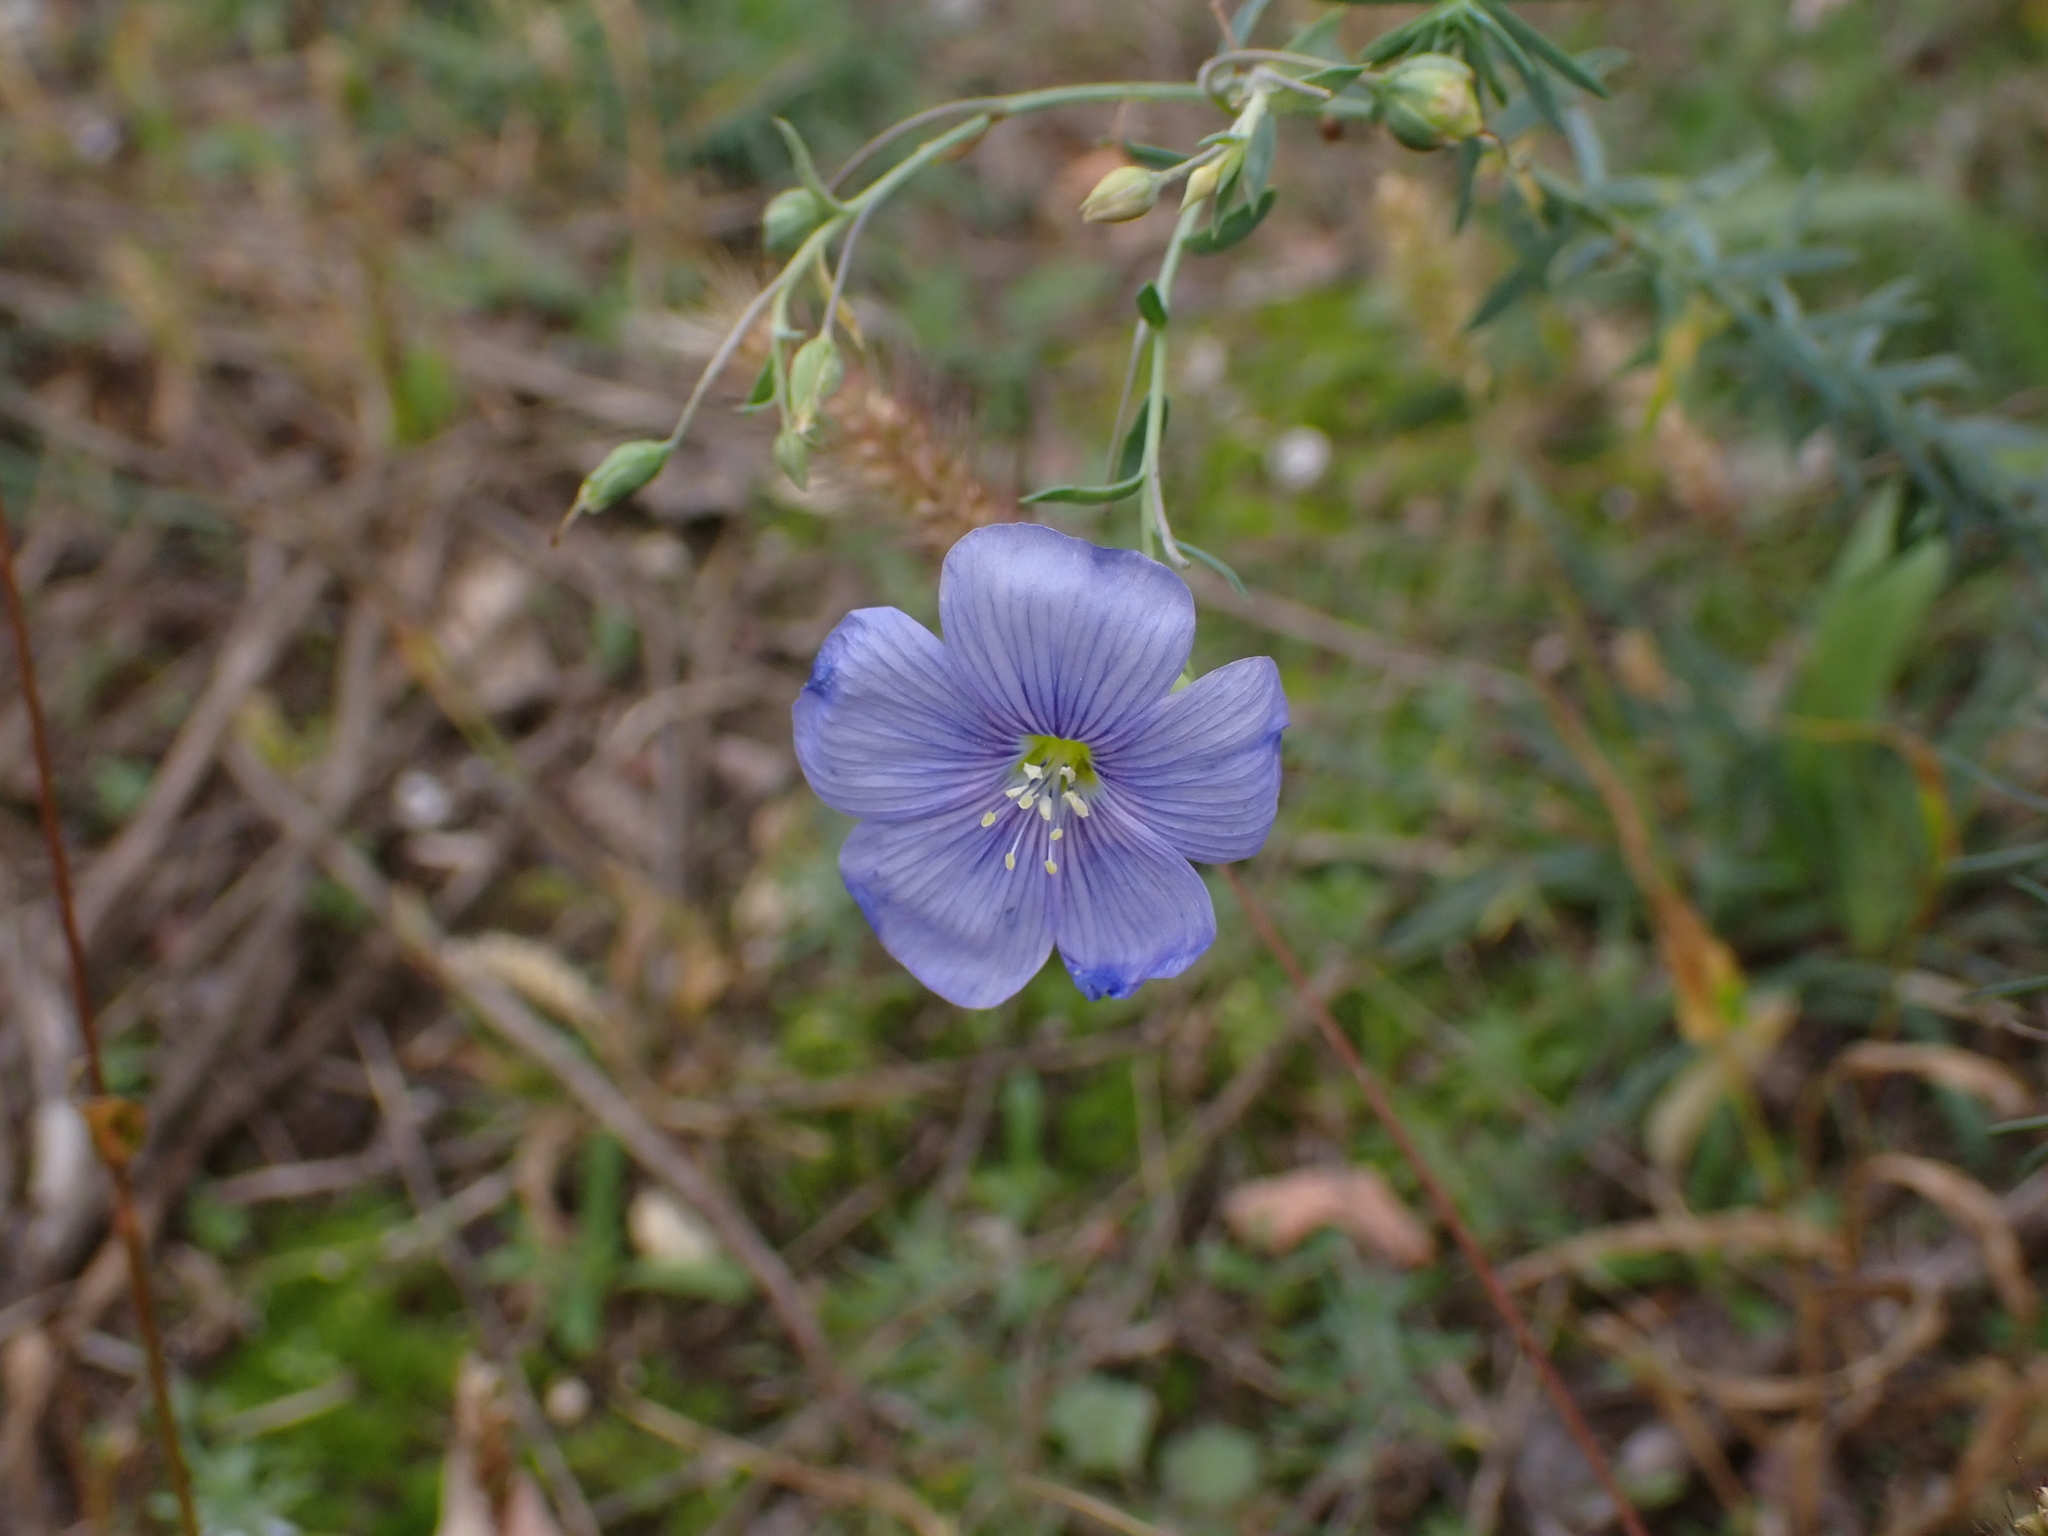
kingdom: Plantae
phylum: Tracheophyta
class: Magnoliopsida
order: Malpighiales
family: Linaceae
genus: Linum
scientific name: Linum austriacum
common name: Austrian flax
